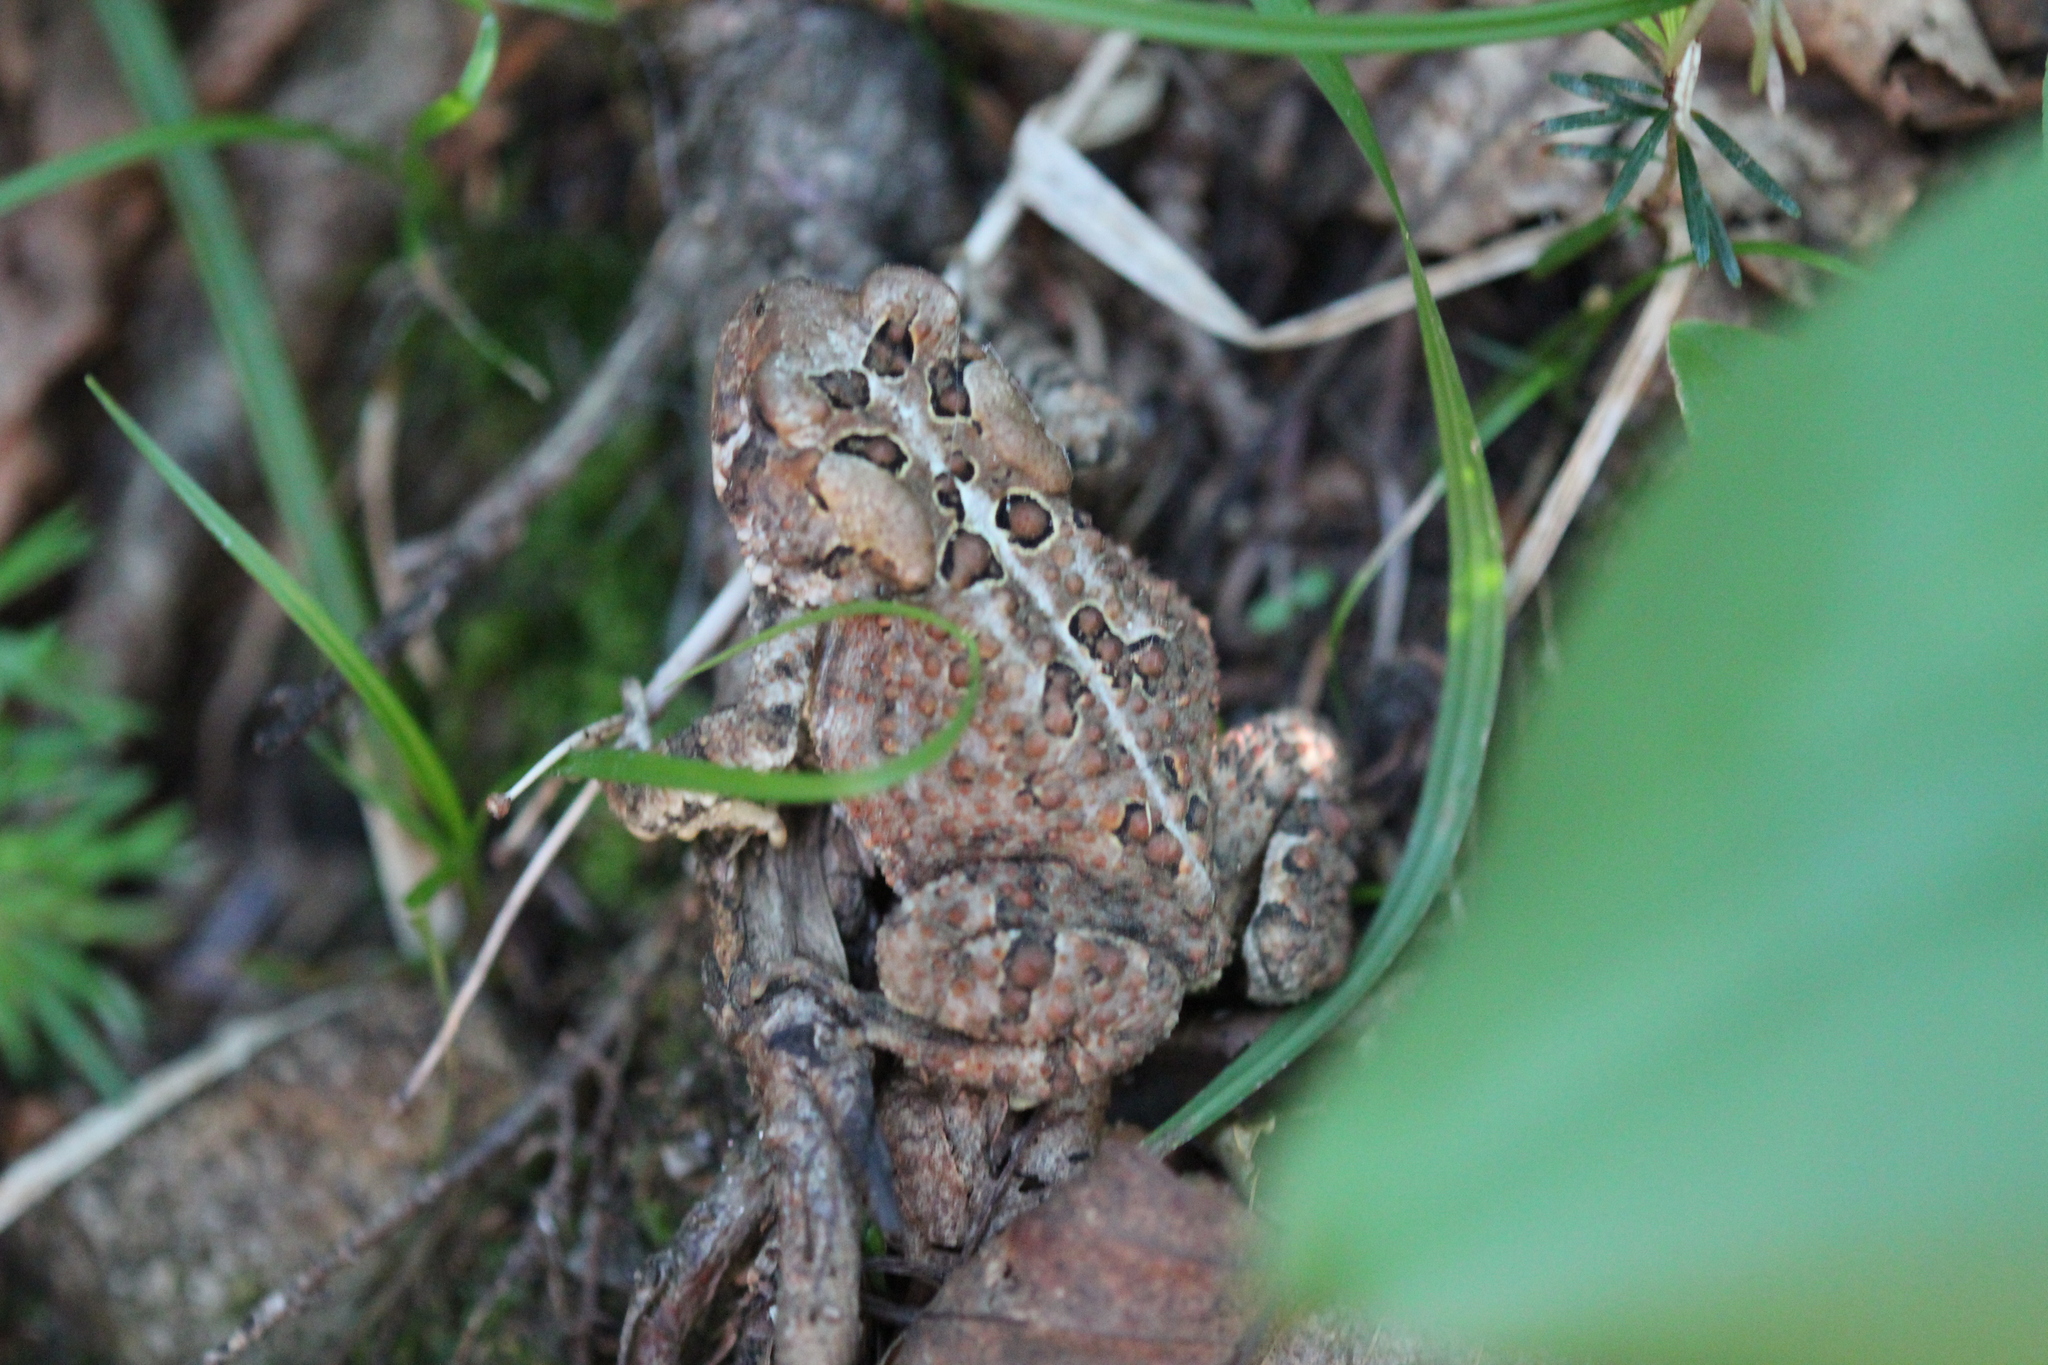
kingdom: Animalia
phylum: Chordata
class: Amphibia
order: Anura
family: Bufonidae
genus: Anaxyrus
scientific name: Anaxyrus americanus
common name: American toad
